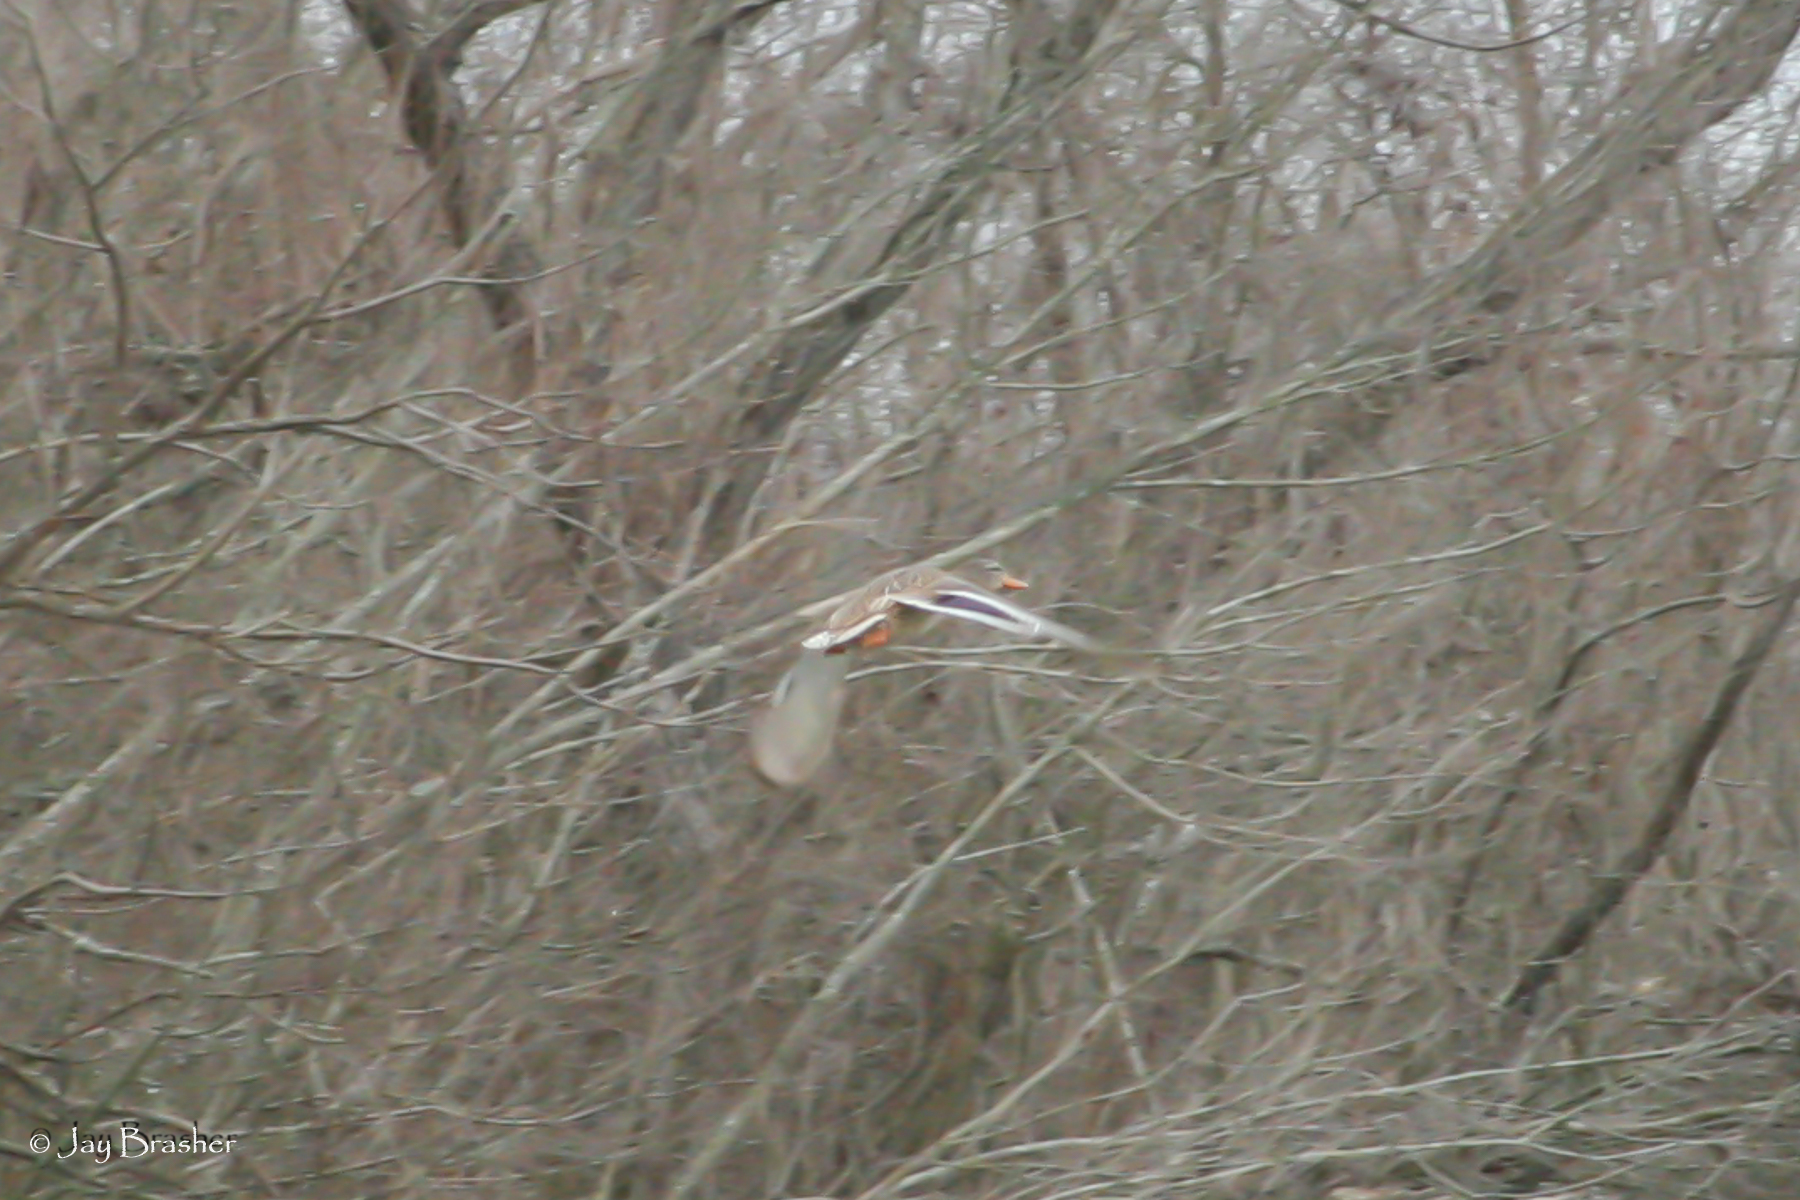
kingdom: Animalia
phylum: Chordata
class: Aves
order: Anseriformes
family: Anatidae
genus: Anas
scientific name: Anas platyrhynchos
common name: Mallard
